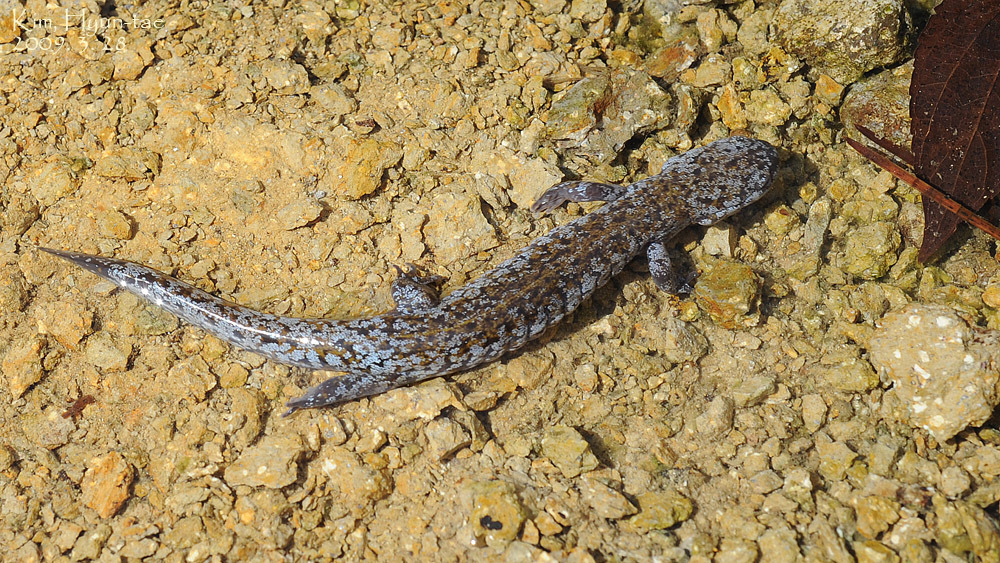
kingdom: Animalia
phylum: Chordata
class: Amphibia
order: Caudata
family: Hynobiidae
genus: Hynobius
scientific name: Hynobius quelpaertensis
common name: Cheju salamander
